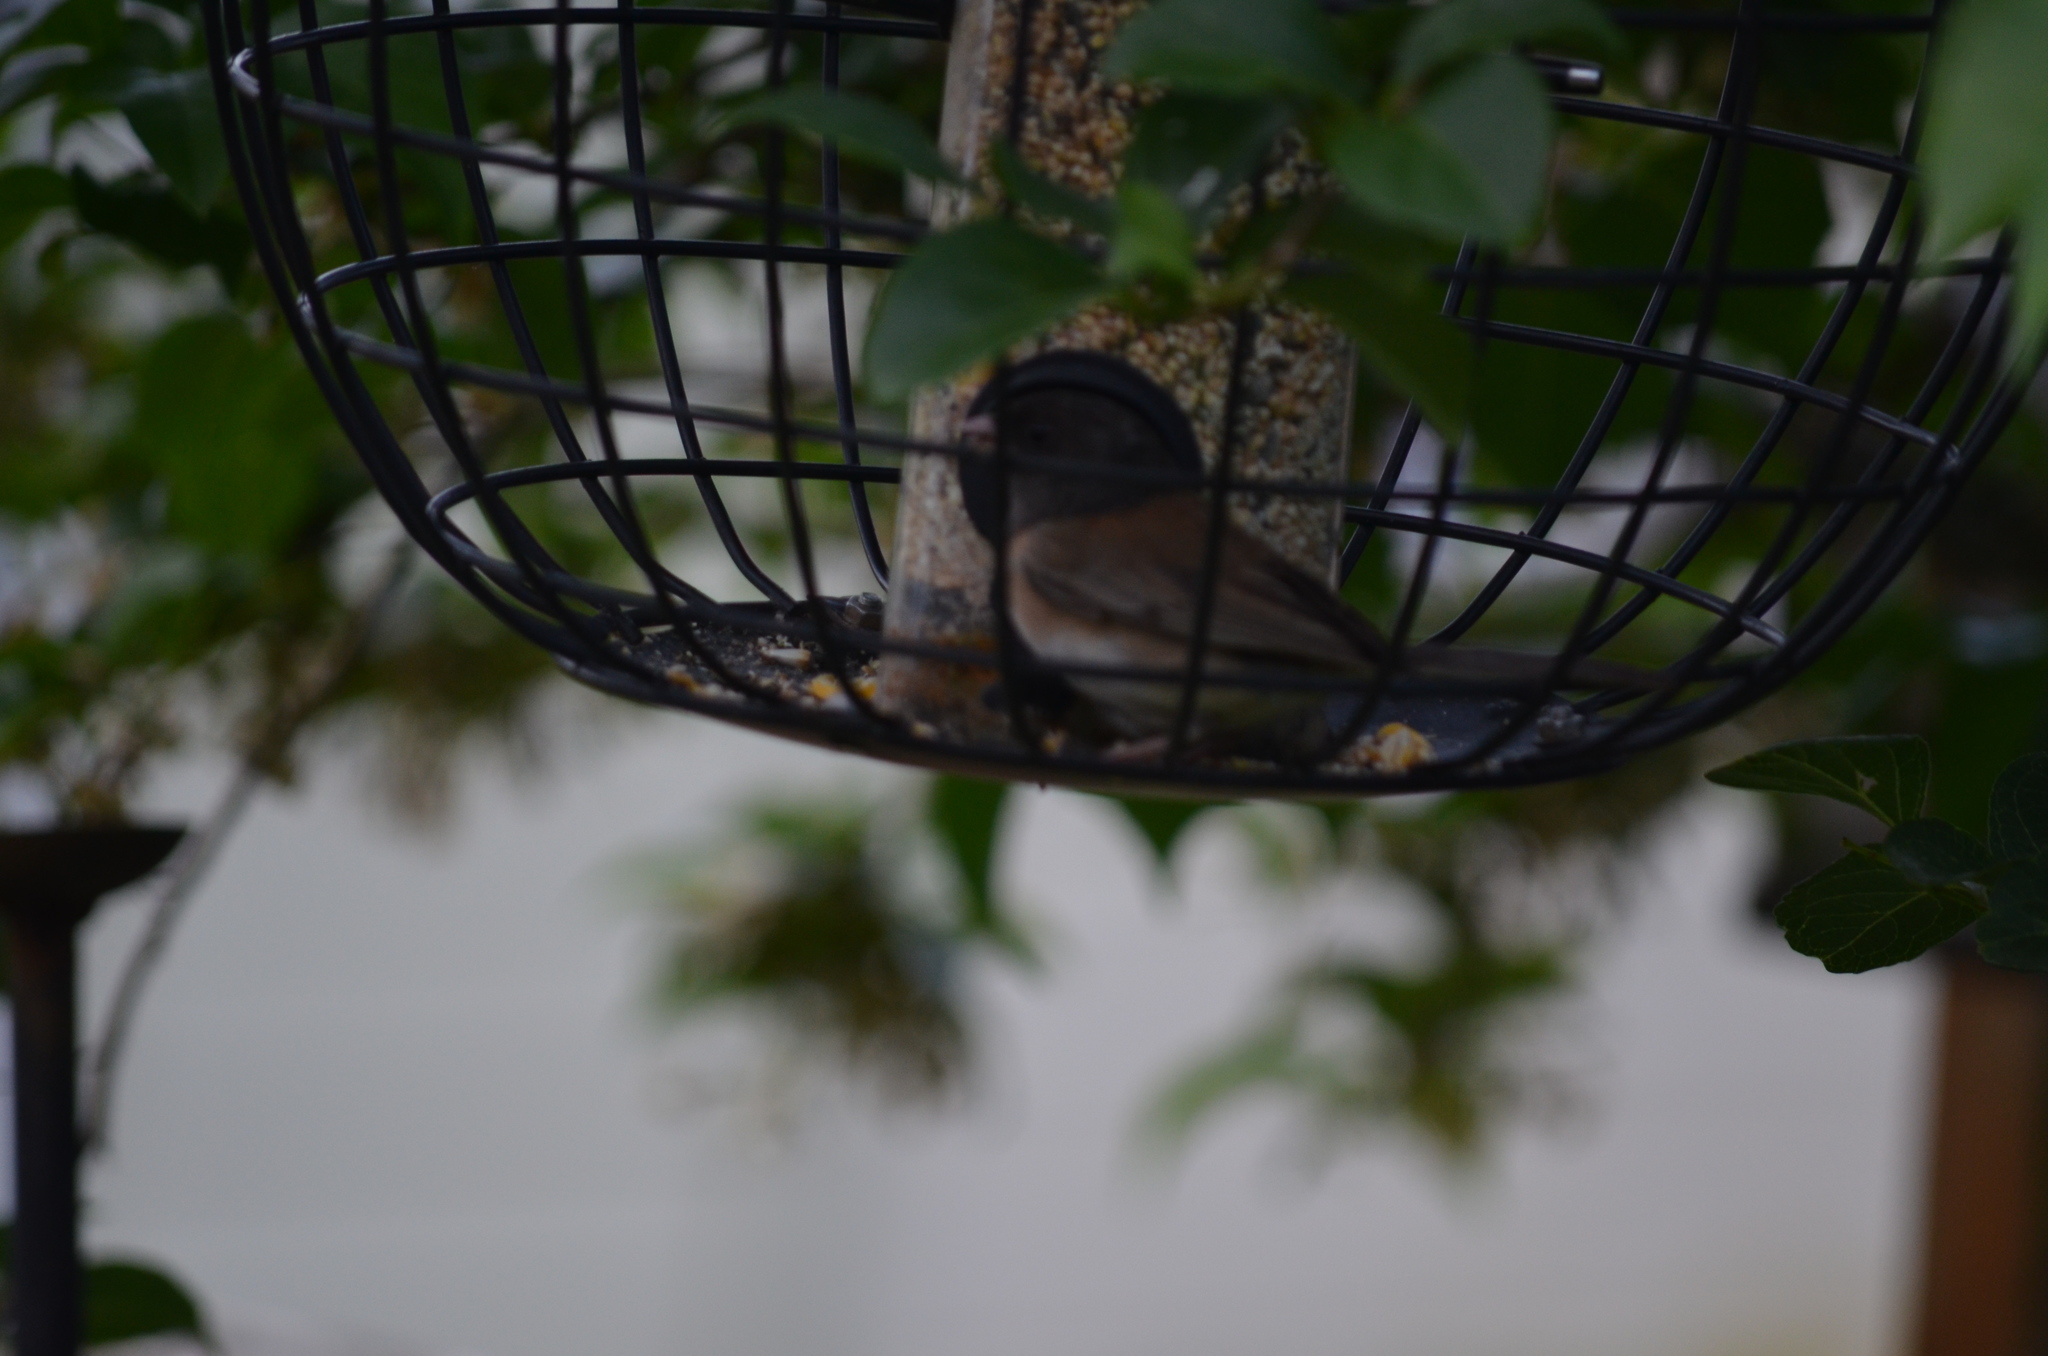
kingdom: Animalia
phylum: Chordata
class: Aves
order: Passeriformes
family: Passerellidae
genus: Junco
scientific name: Junco hyemalis
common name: Dark-eyed junco
